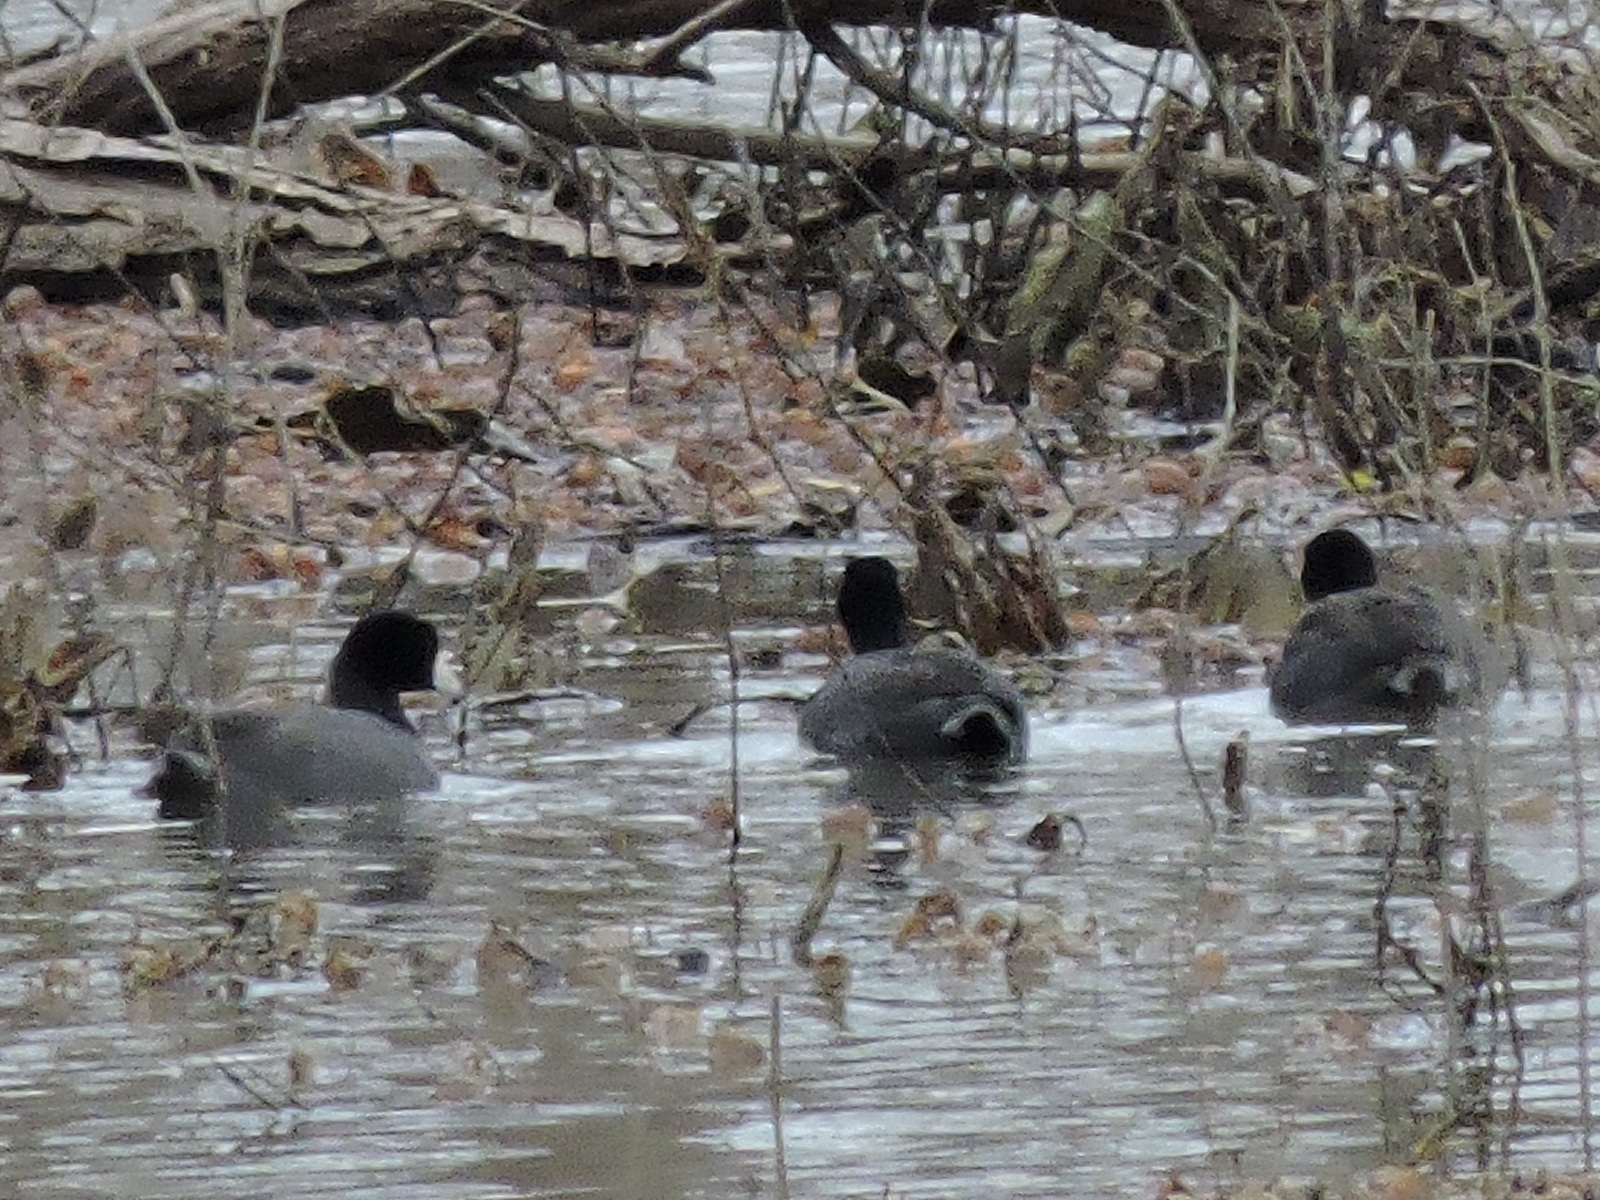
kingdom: Animalia
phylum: Chordata
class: Aves
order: Gruiformes
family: Rallidae
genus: Fulica
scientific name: Fulica americana
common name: American coot
